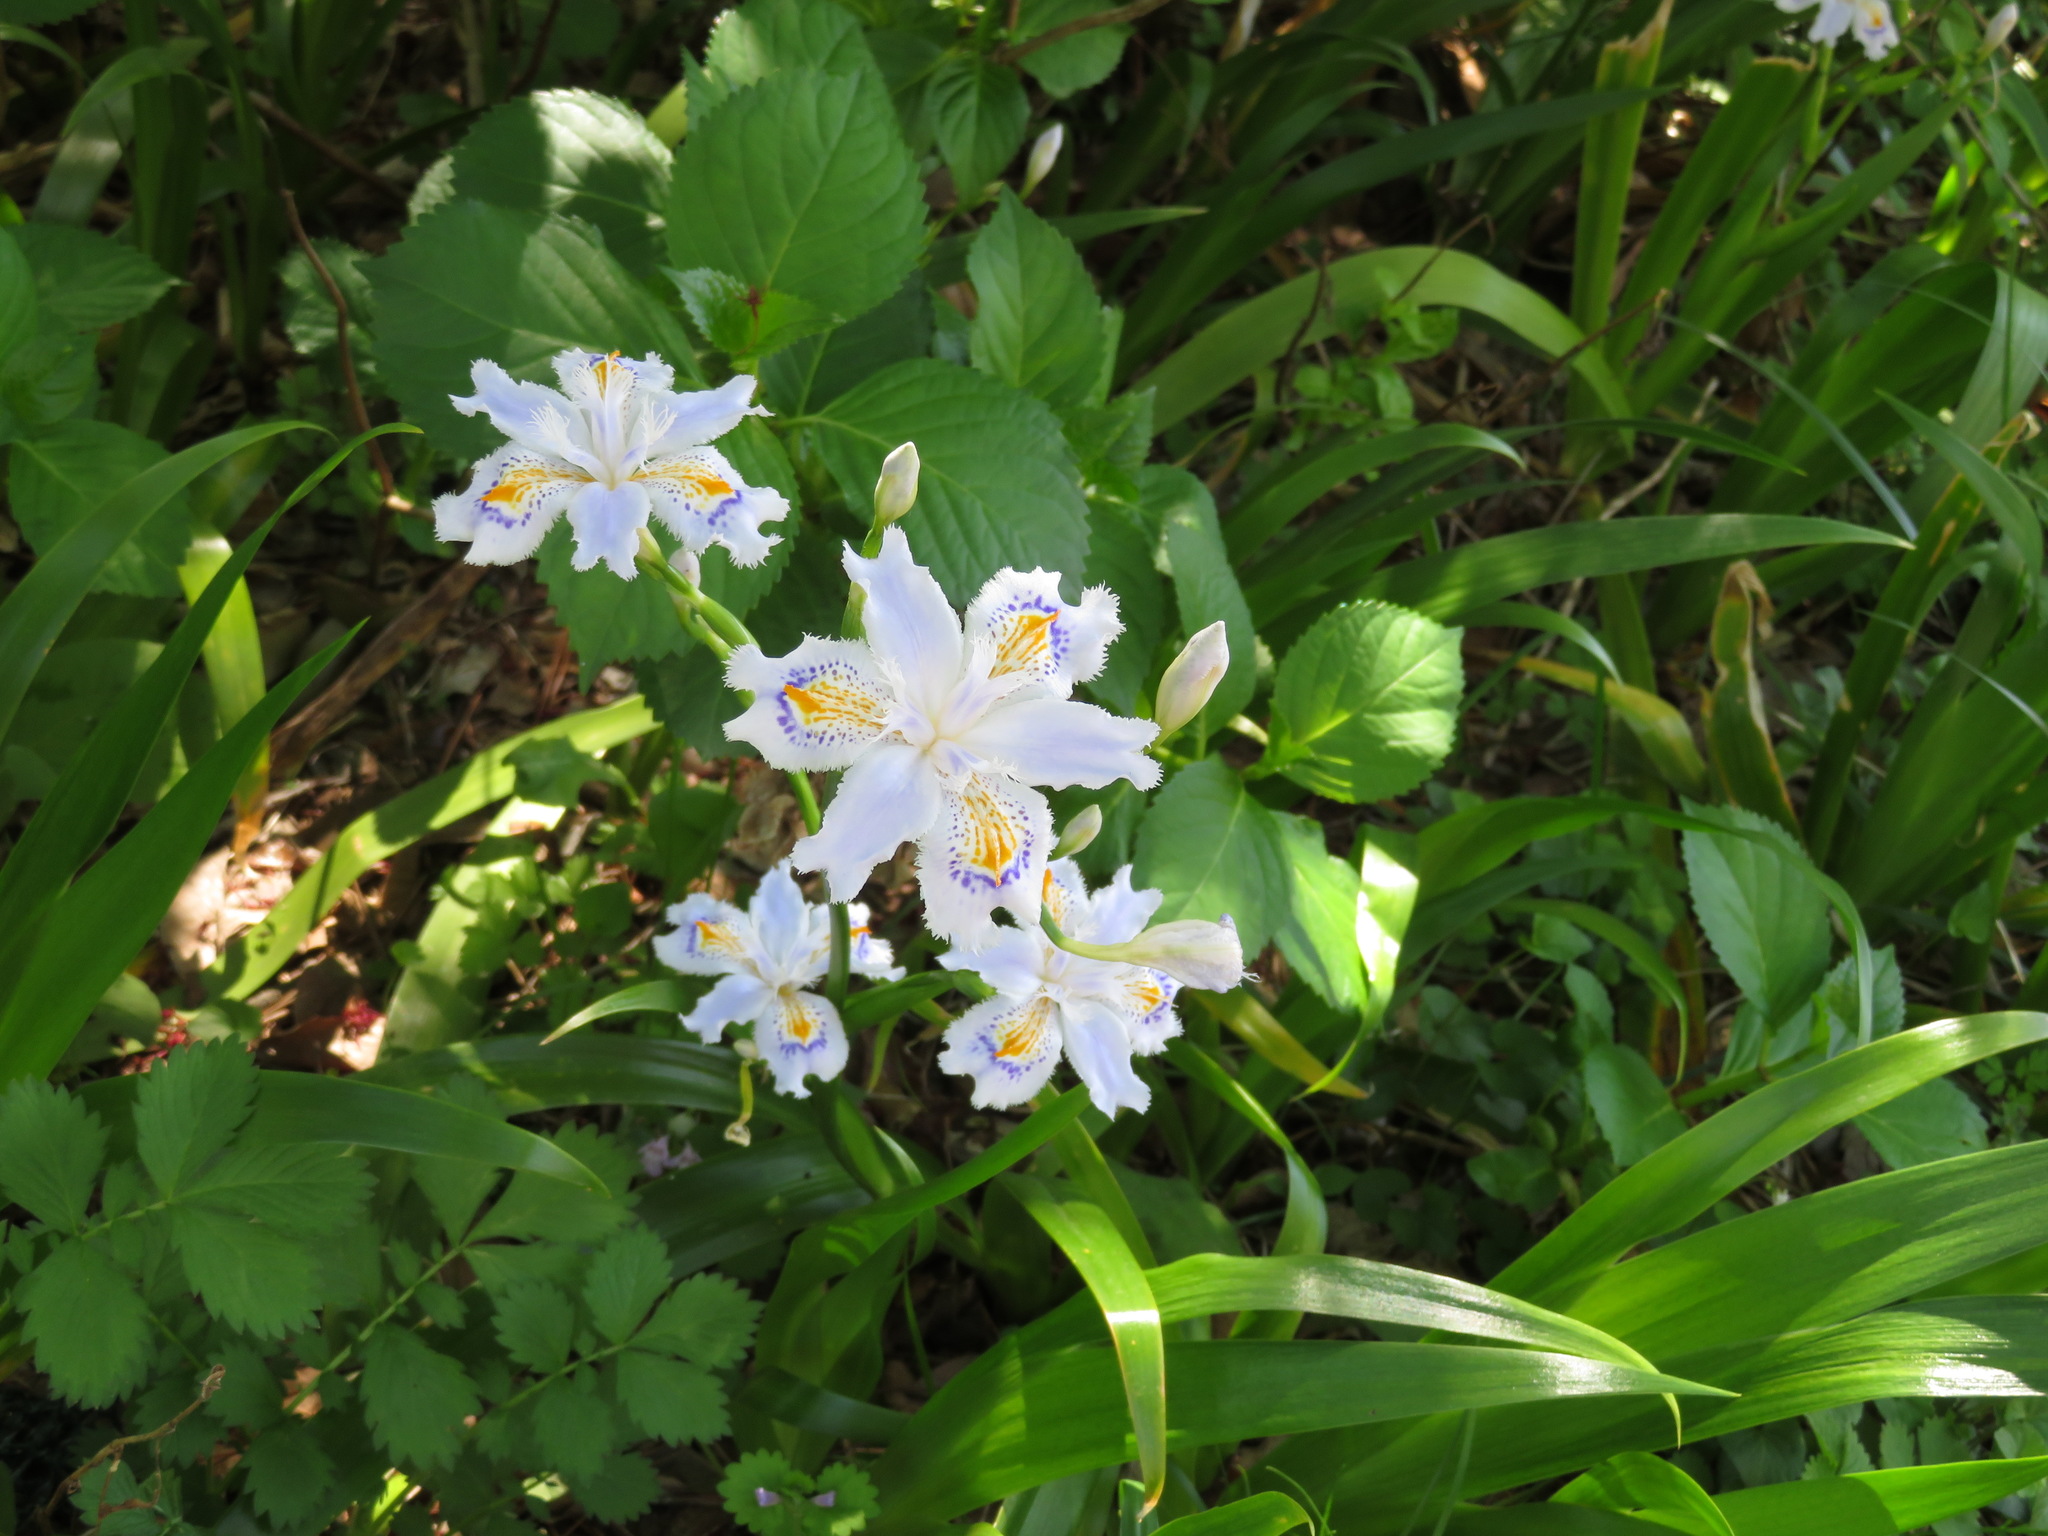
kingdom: Plantae
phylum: Tracheophyta
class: Liliopsida
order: Asparagales
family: Iridaceae
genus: Iris
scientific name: Iris japonica
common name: Butterfly-flower
